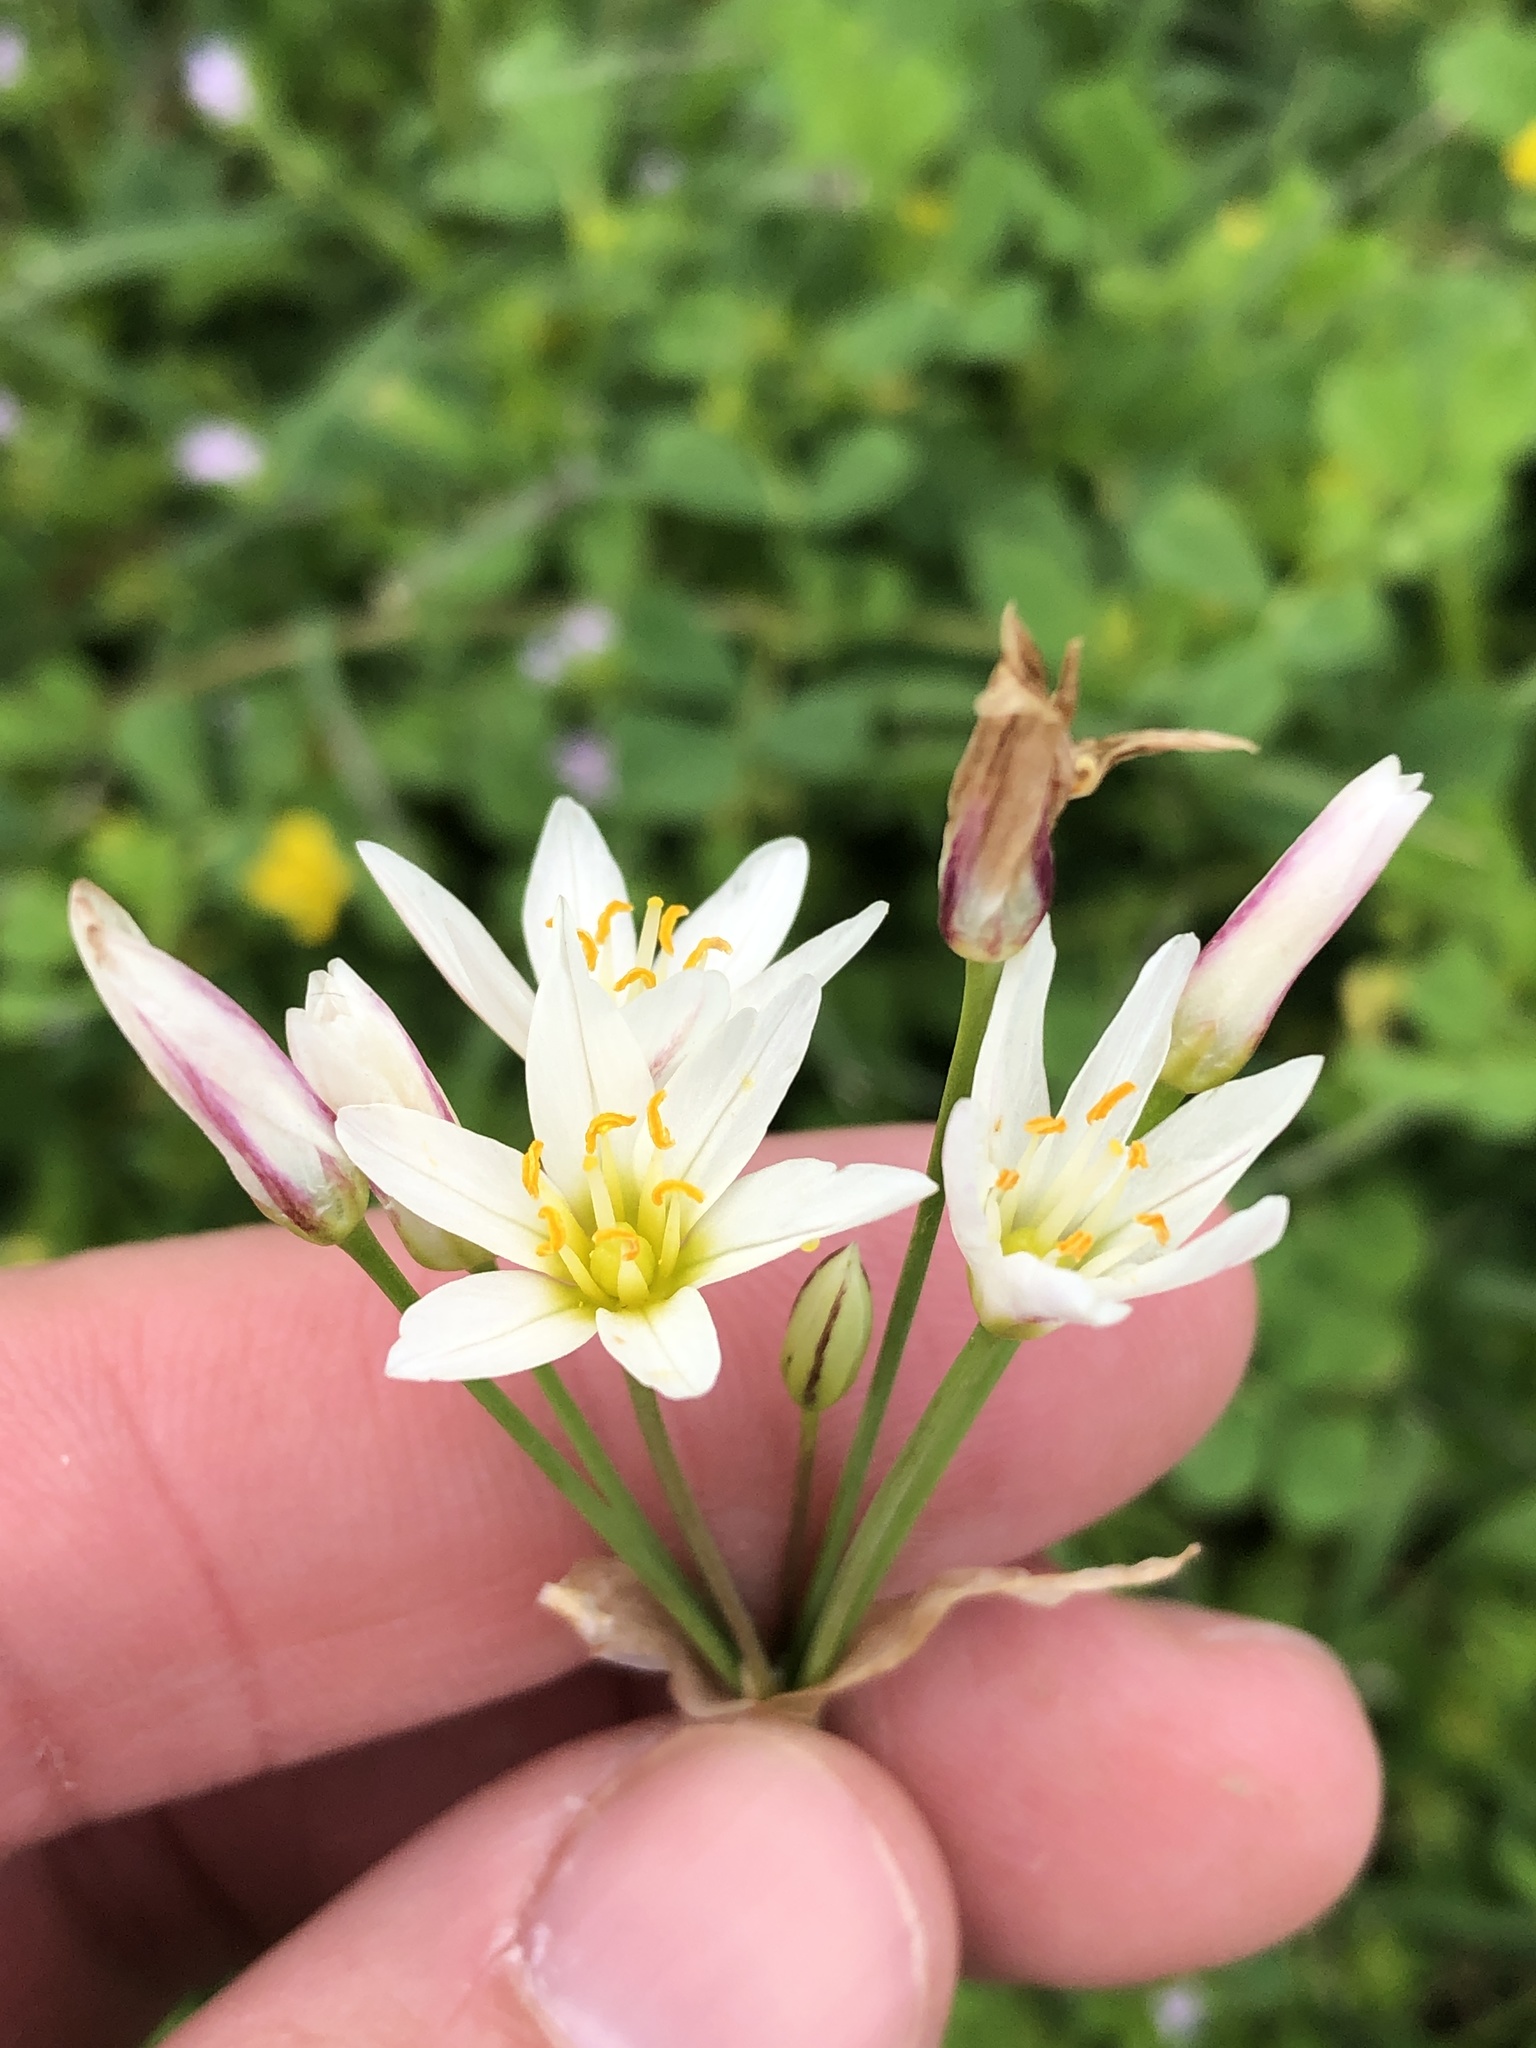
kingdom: Plantae
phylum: Tracheophyta
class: Liliopsida
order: Asparagales
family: Amaryllidaceae
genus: Nothoscordum
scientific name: Nothoscordum bivalve
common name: Crow-poison
